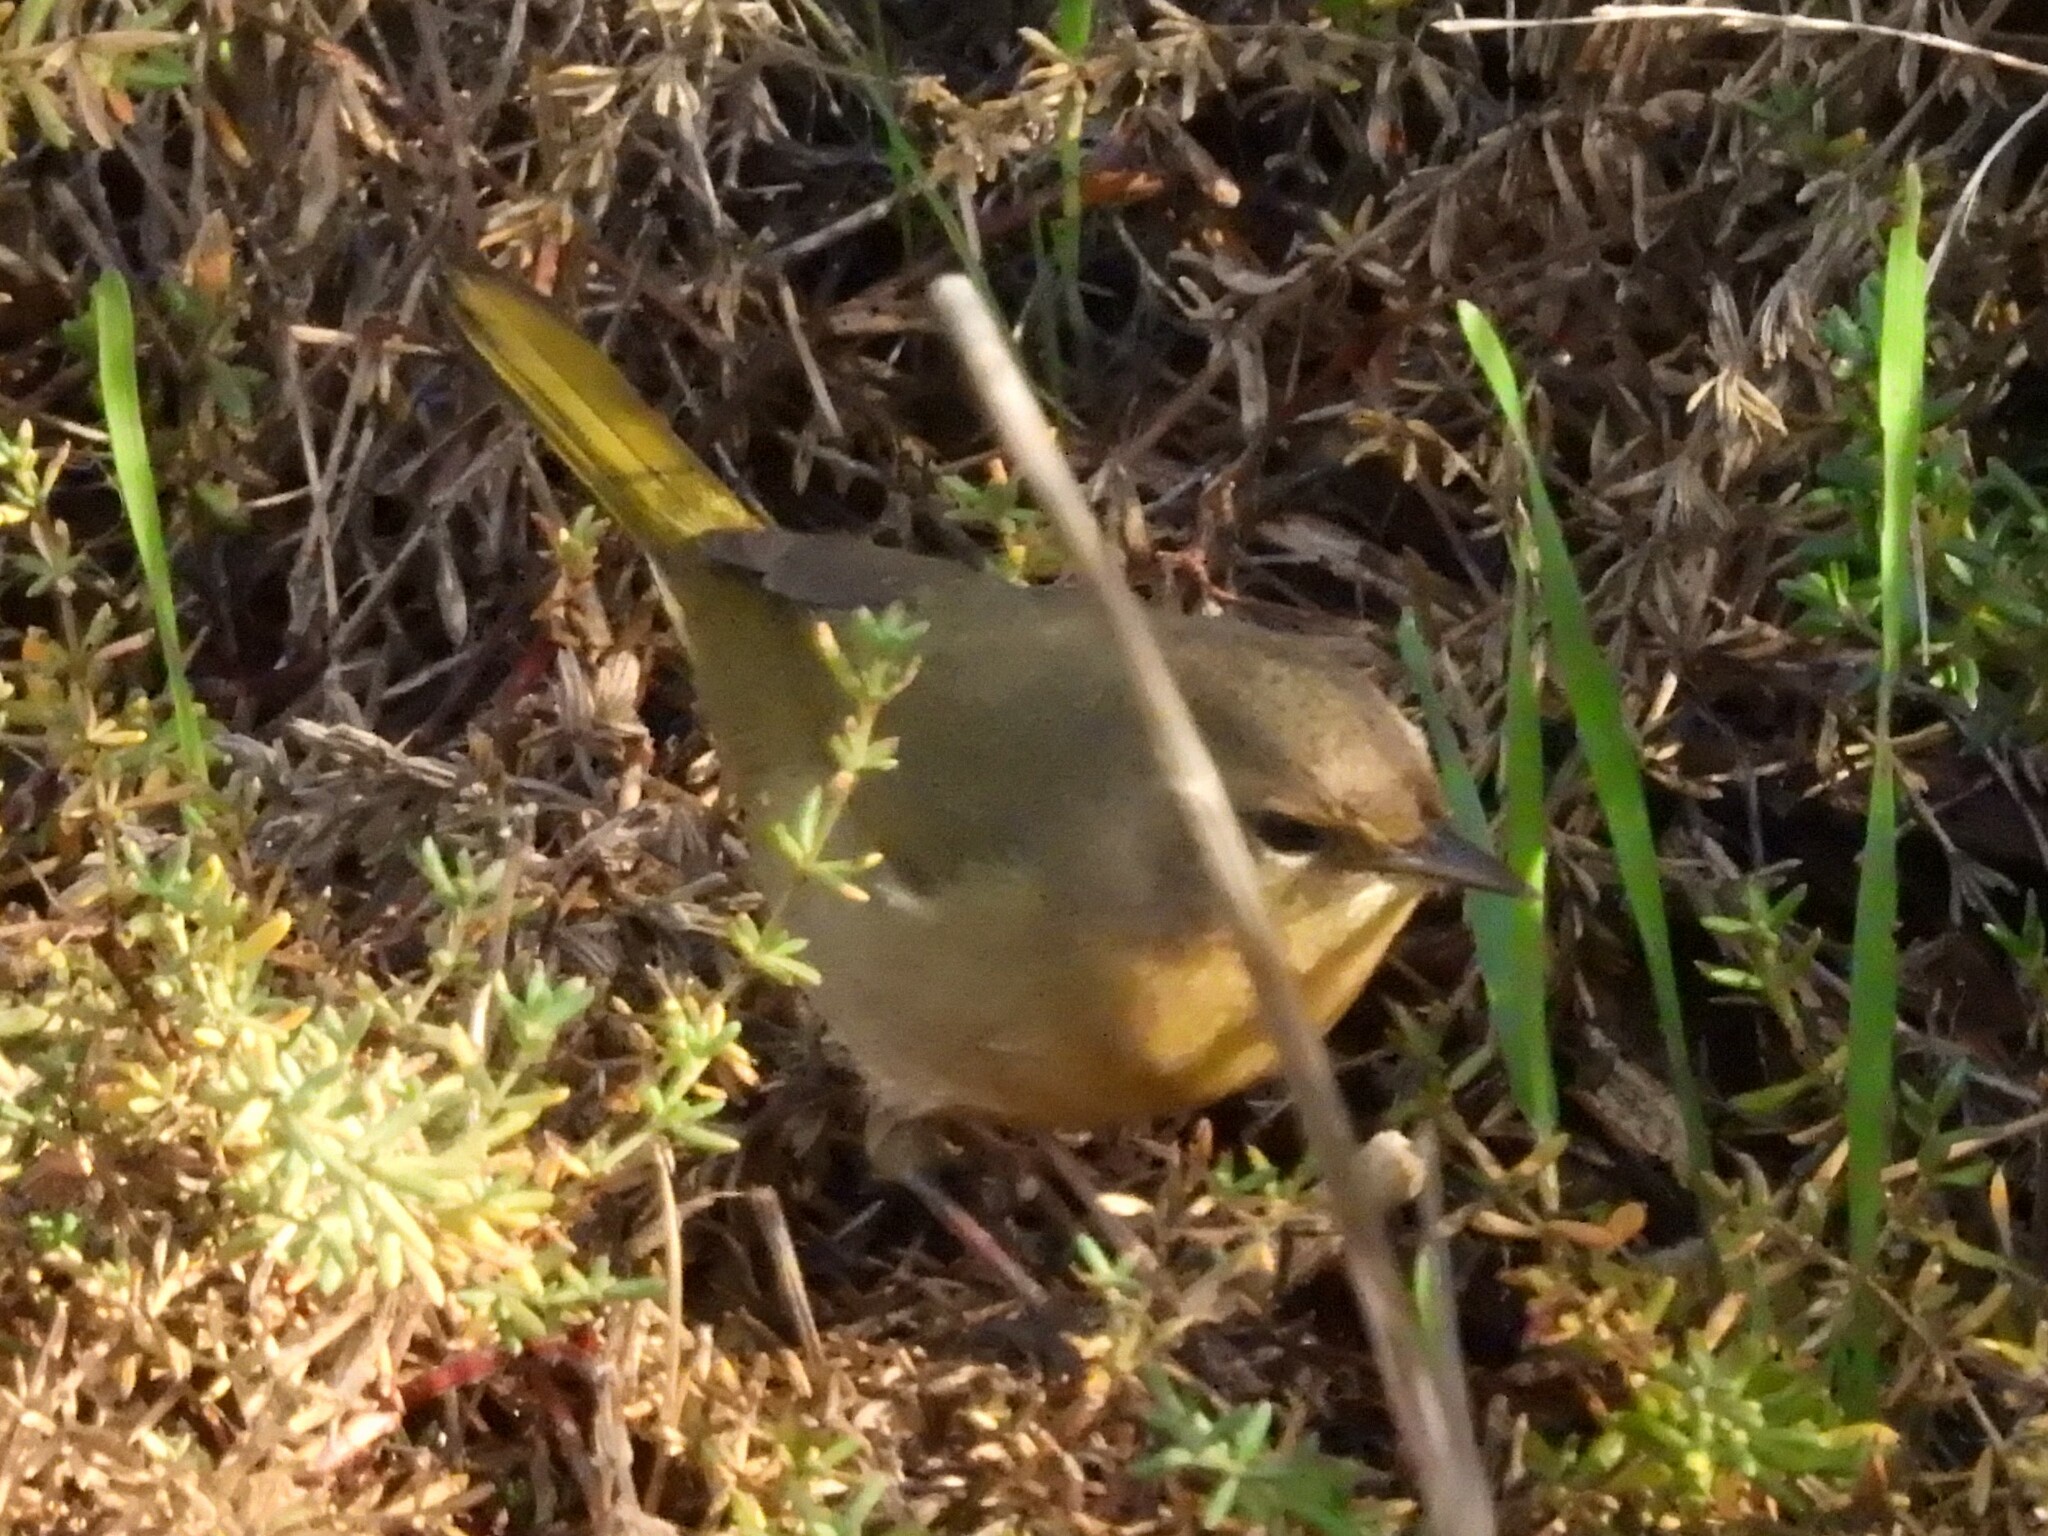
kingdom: Animalia
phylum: Chordata
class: Aves
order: Passeriformes
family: Parulidae
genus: Geothlypis
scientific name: Geothlypis trichas
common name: Common yellowthroat
